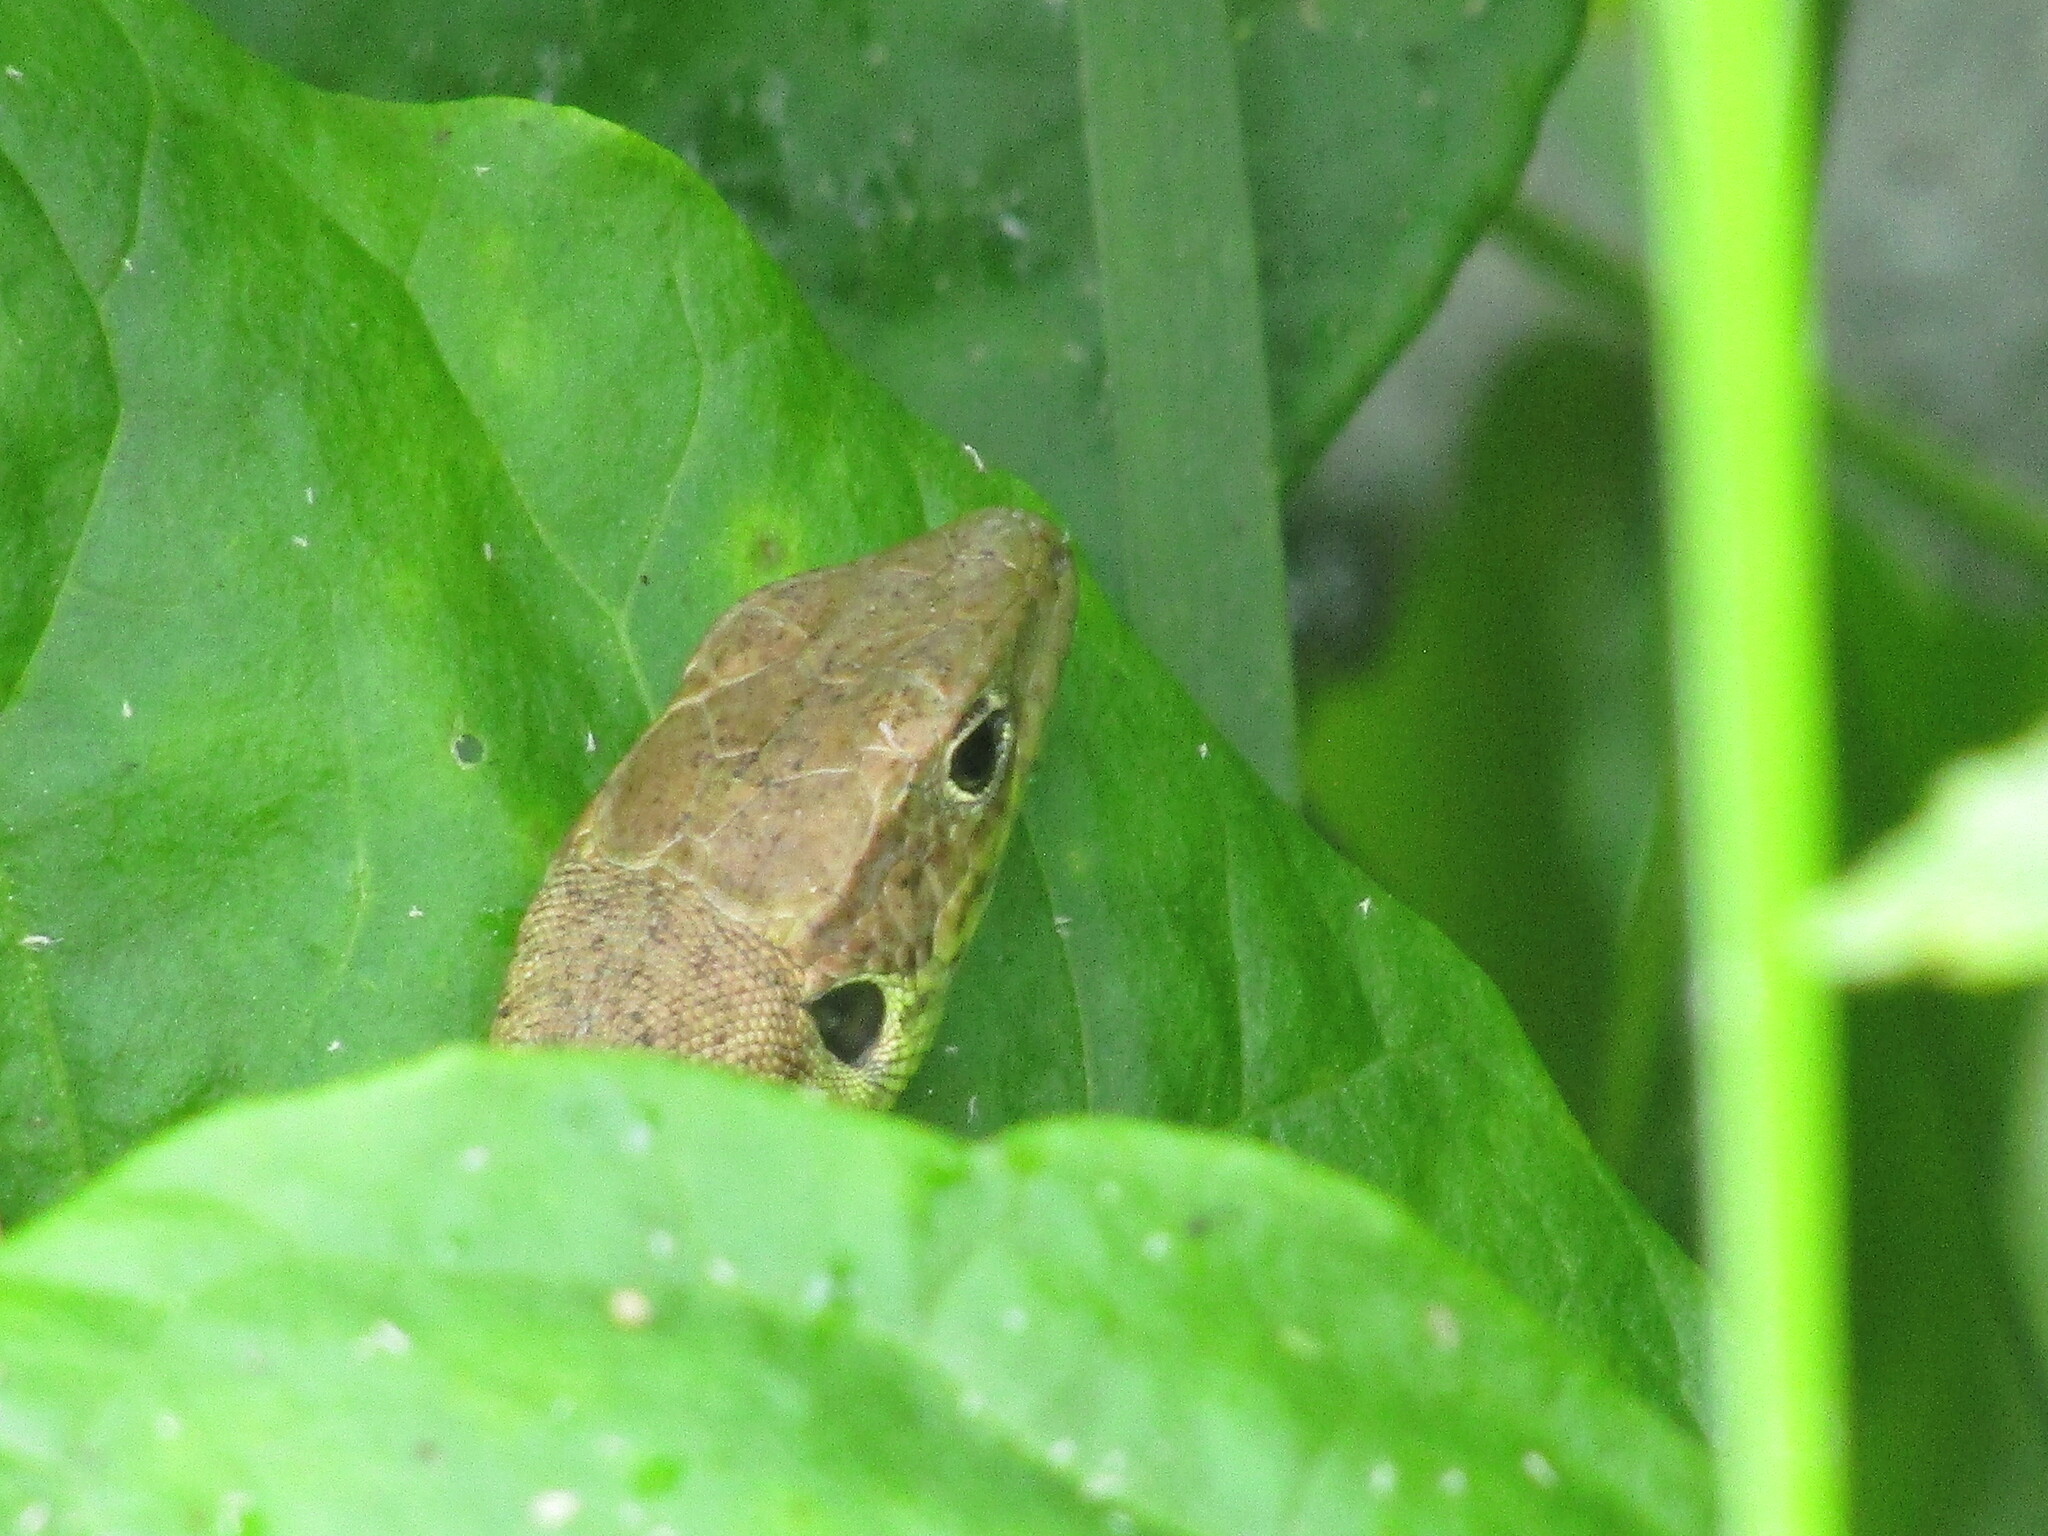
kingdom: Animalia
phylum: Chordata
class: Squamata
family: Lacertidae
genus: Lacerta
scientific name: Lacerta viridis
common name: European green lizard
